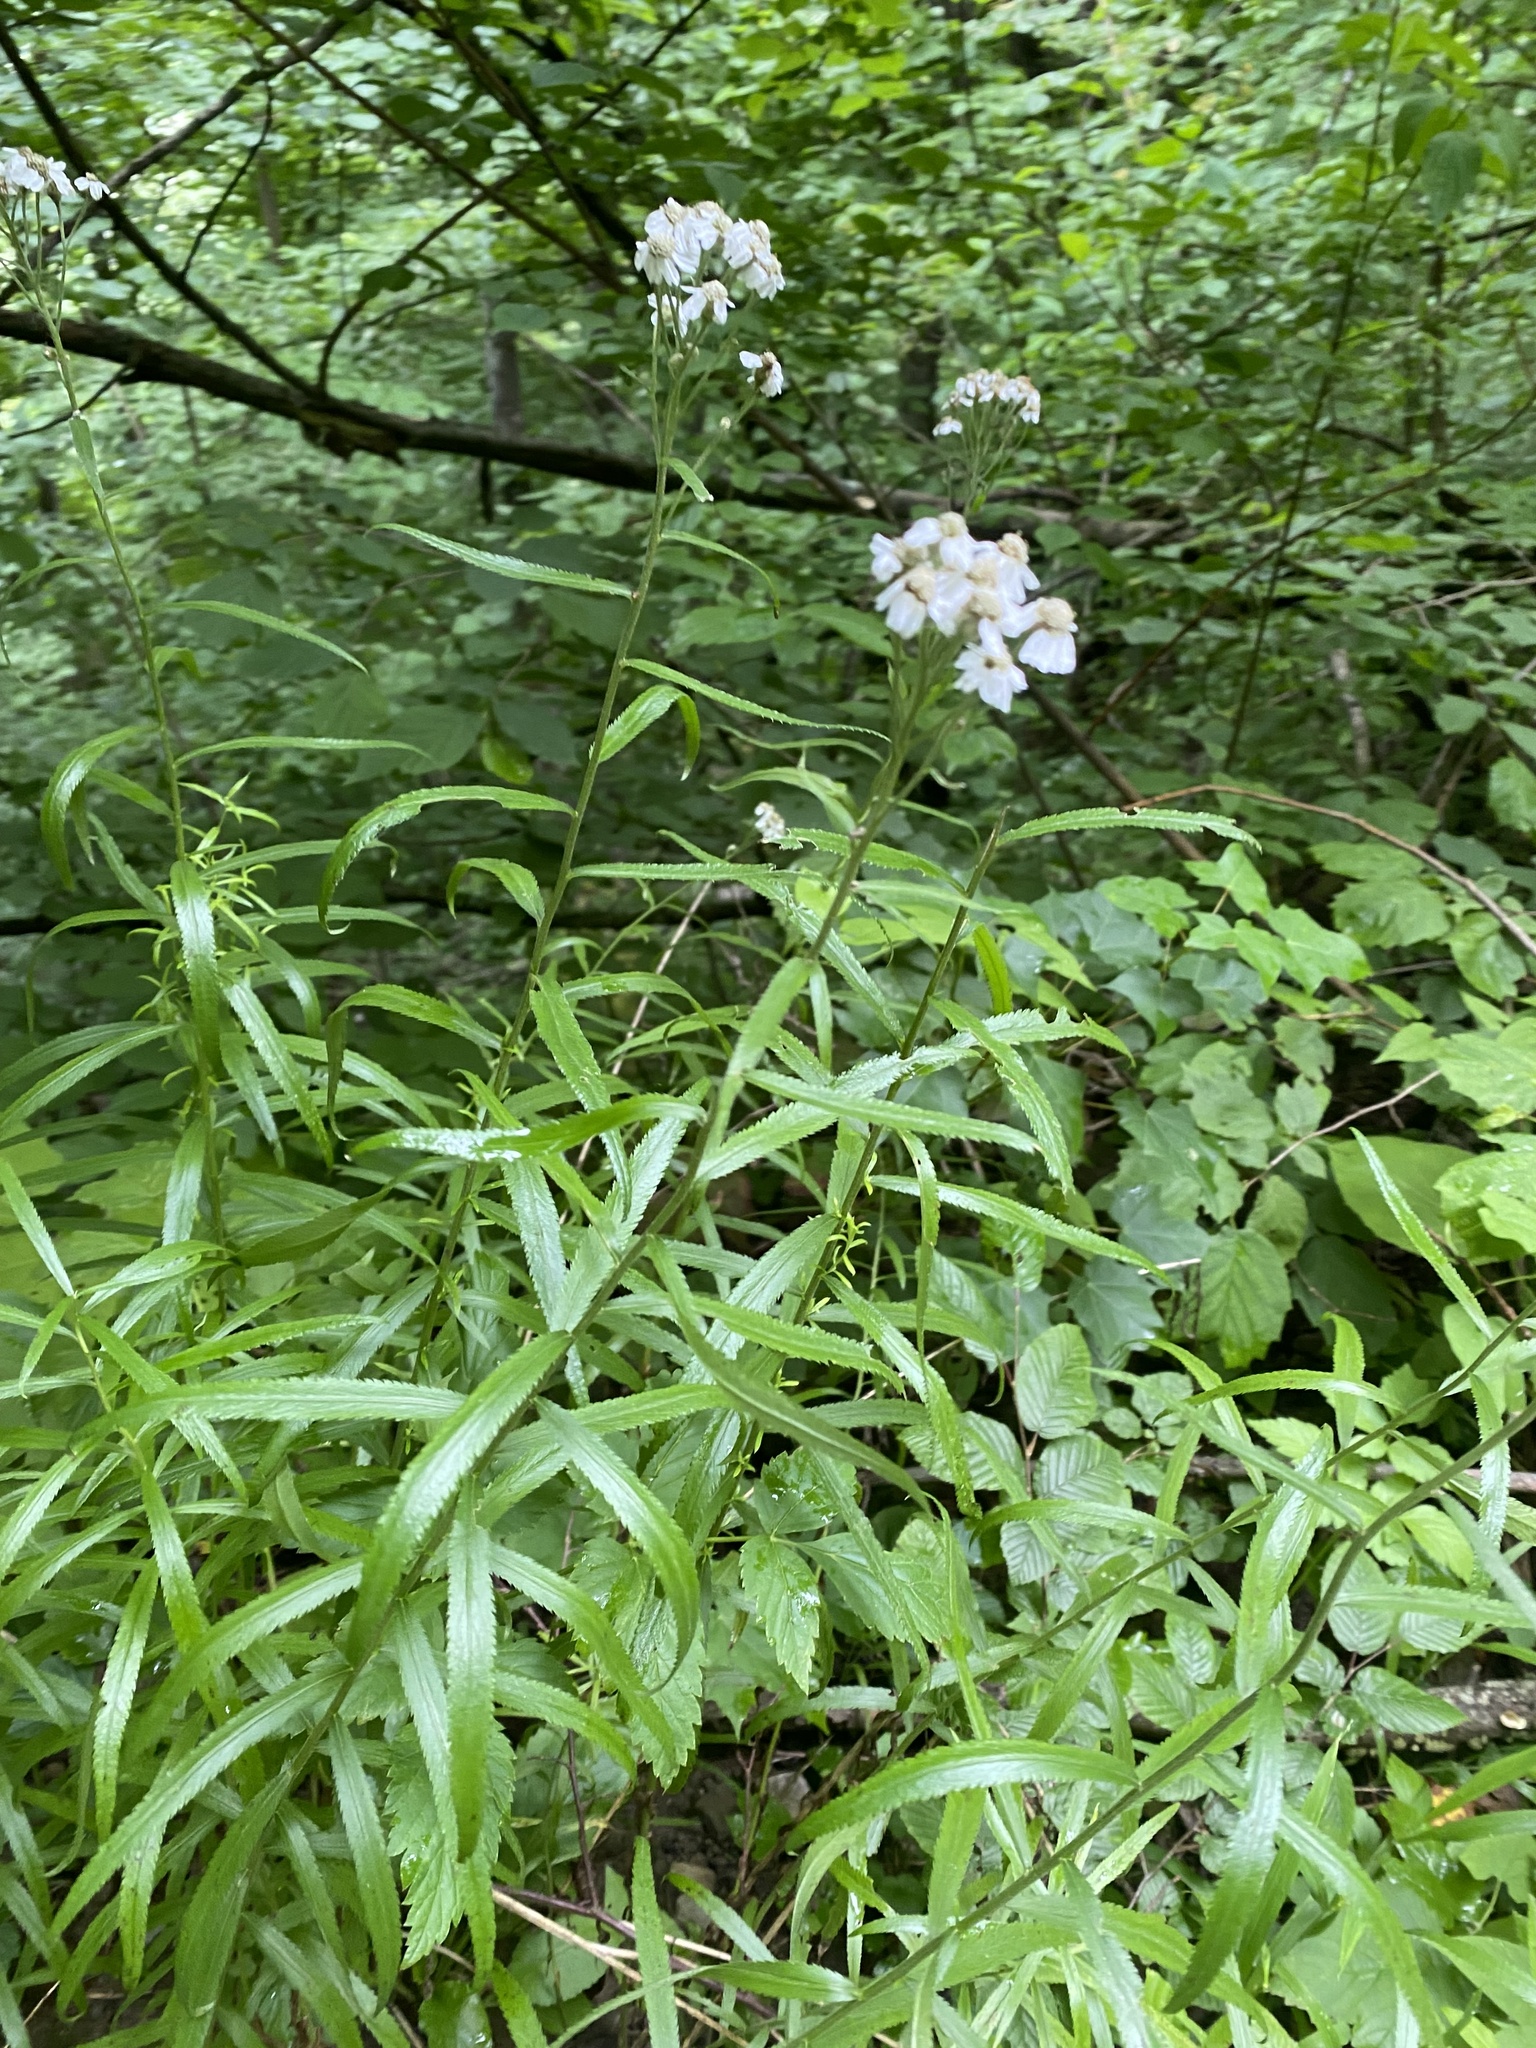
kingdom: Plantae
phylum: Tracheophyta
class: Magnoliopsida
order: Asterales
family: Asteraceae
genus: Achillea
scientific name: Achillea biserrata
